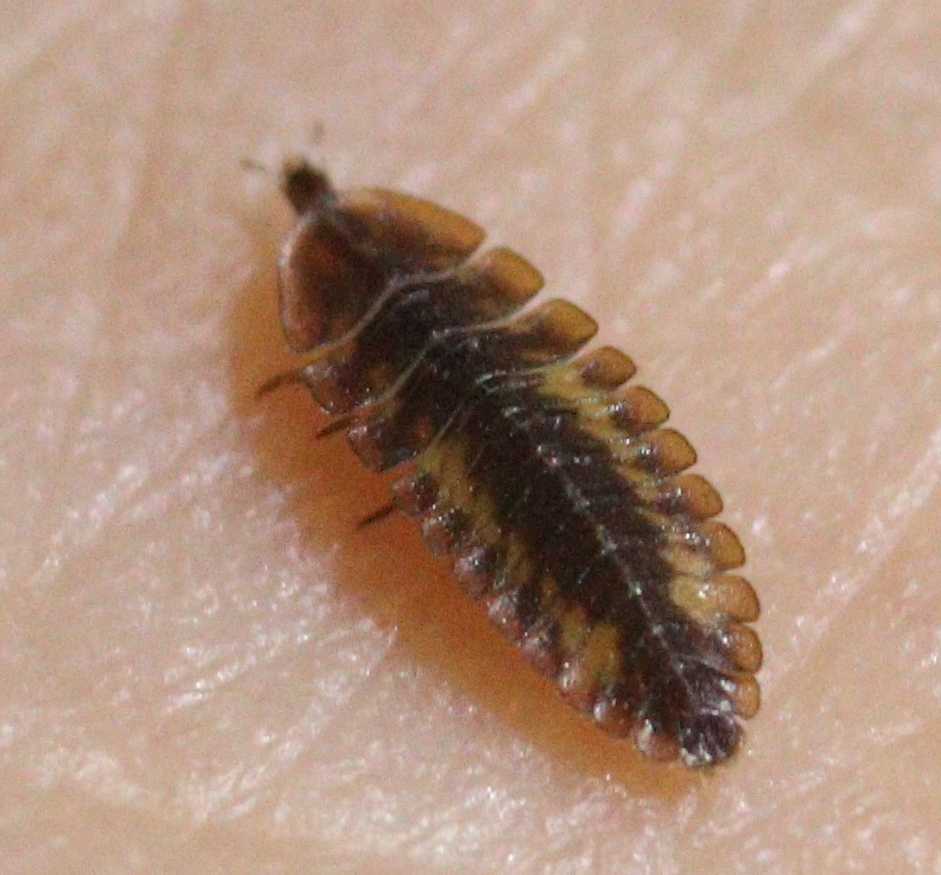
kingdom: Animalia
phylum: Arthropoda
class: Insecta
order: Coleoptera
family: Lampyridae
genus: Lamprohiza
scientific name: Lamprohiza splendidula
